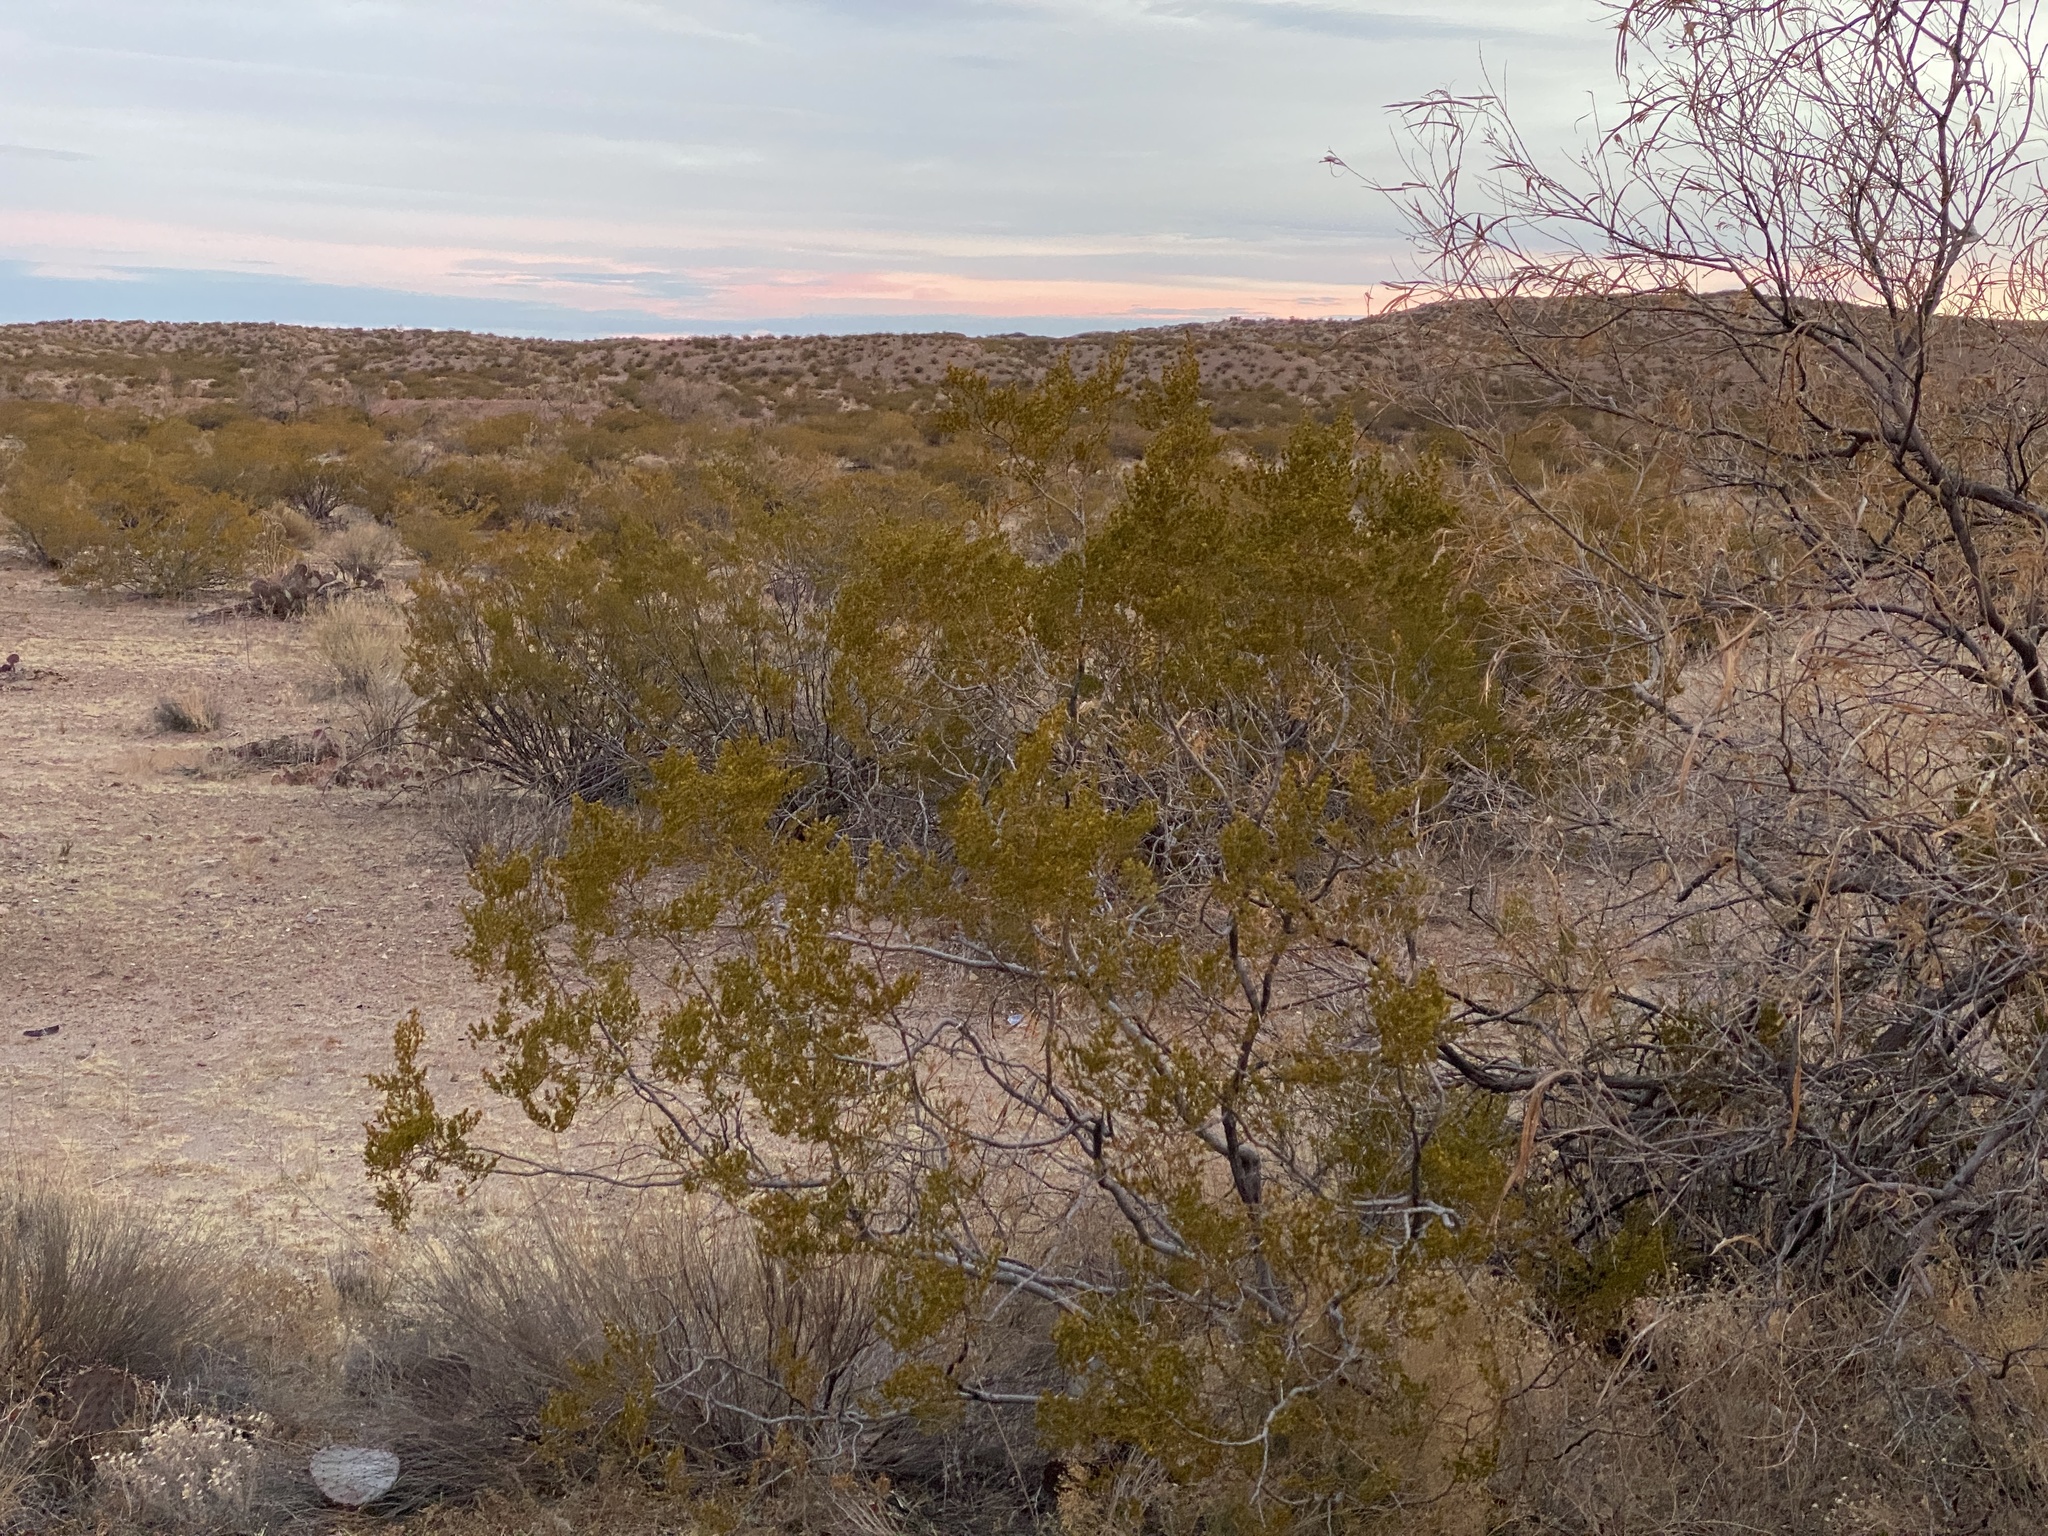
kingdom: Plantae
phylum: Tracheophyta
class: Magnoliopsida
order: Zygophyllales
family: Zygophyllaceae
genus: Larrea
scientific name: Larrea tridentata
